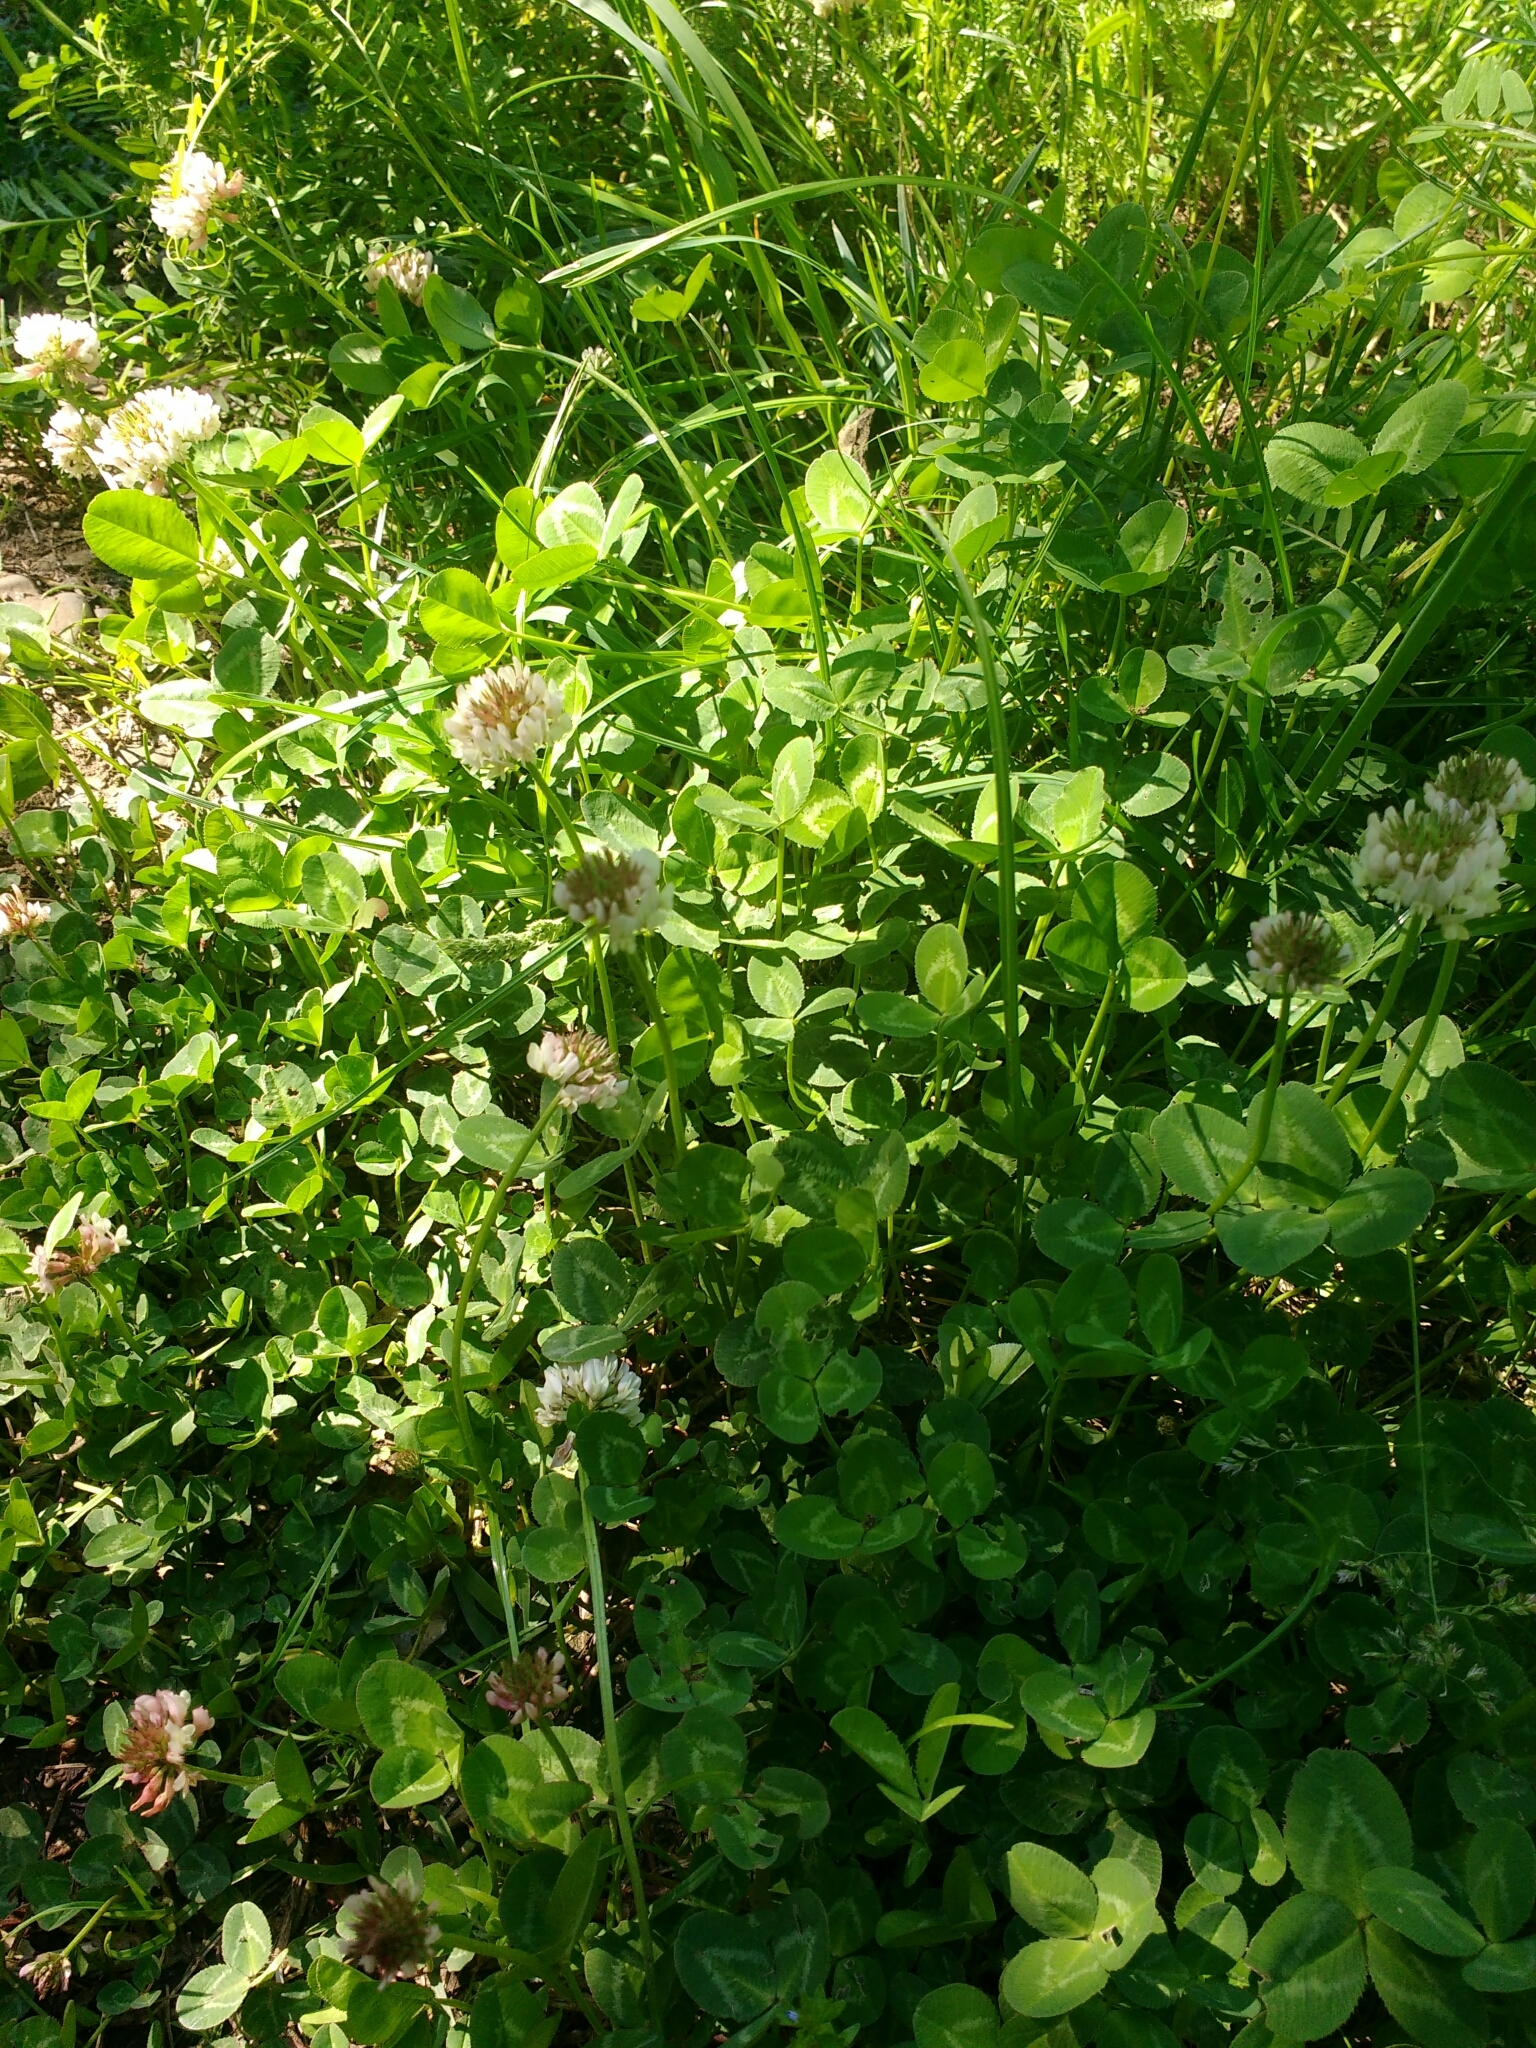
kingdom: Plantae
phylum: Tracheophyta
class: Magnoliopsida
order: Fabales
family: Fabaceae
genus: Trifolium
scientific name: Trifolium repens
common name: White clover
